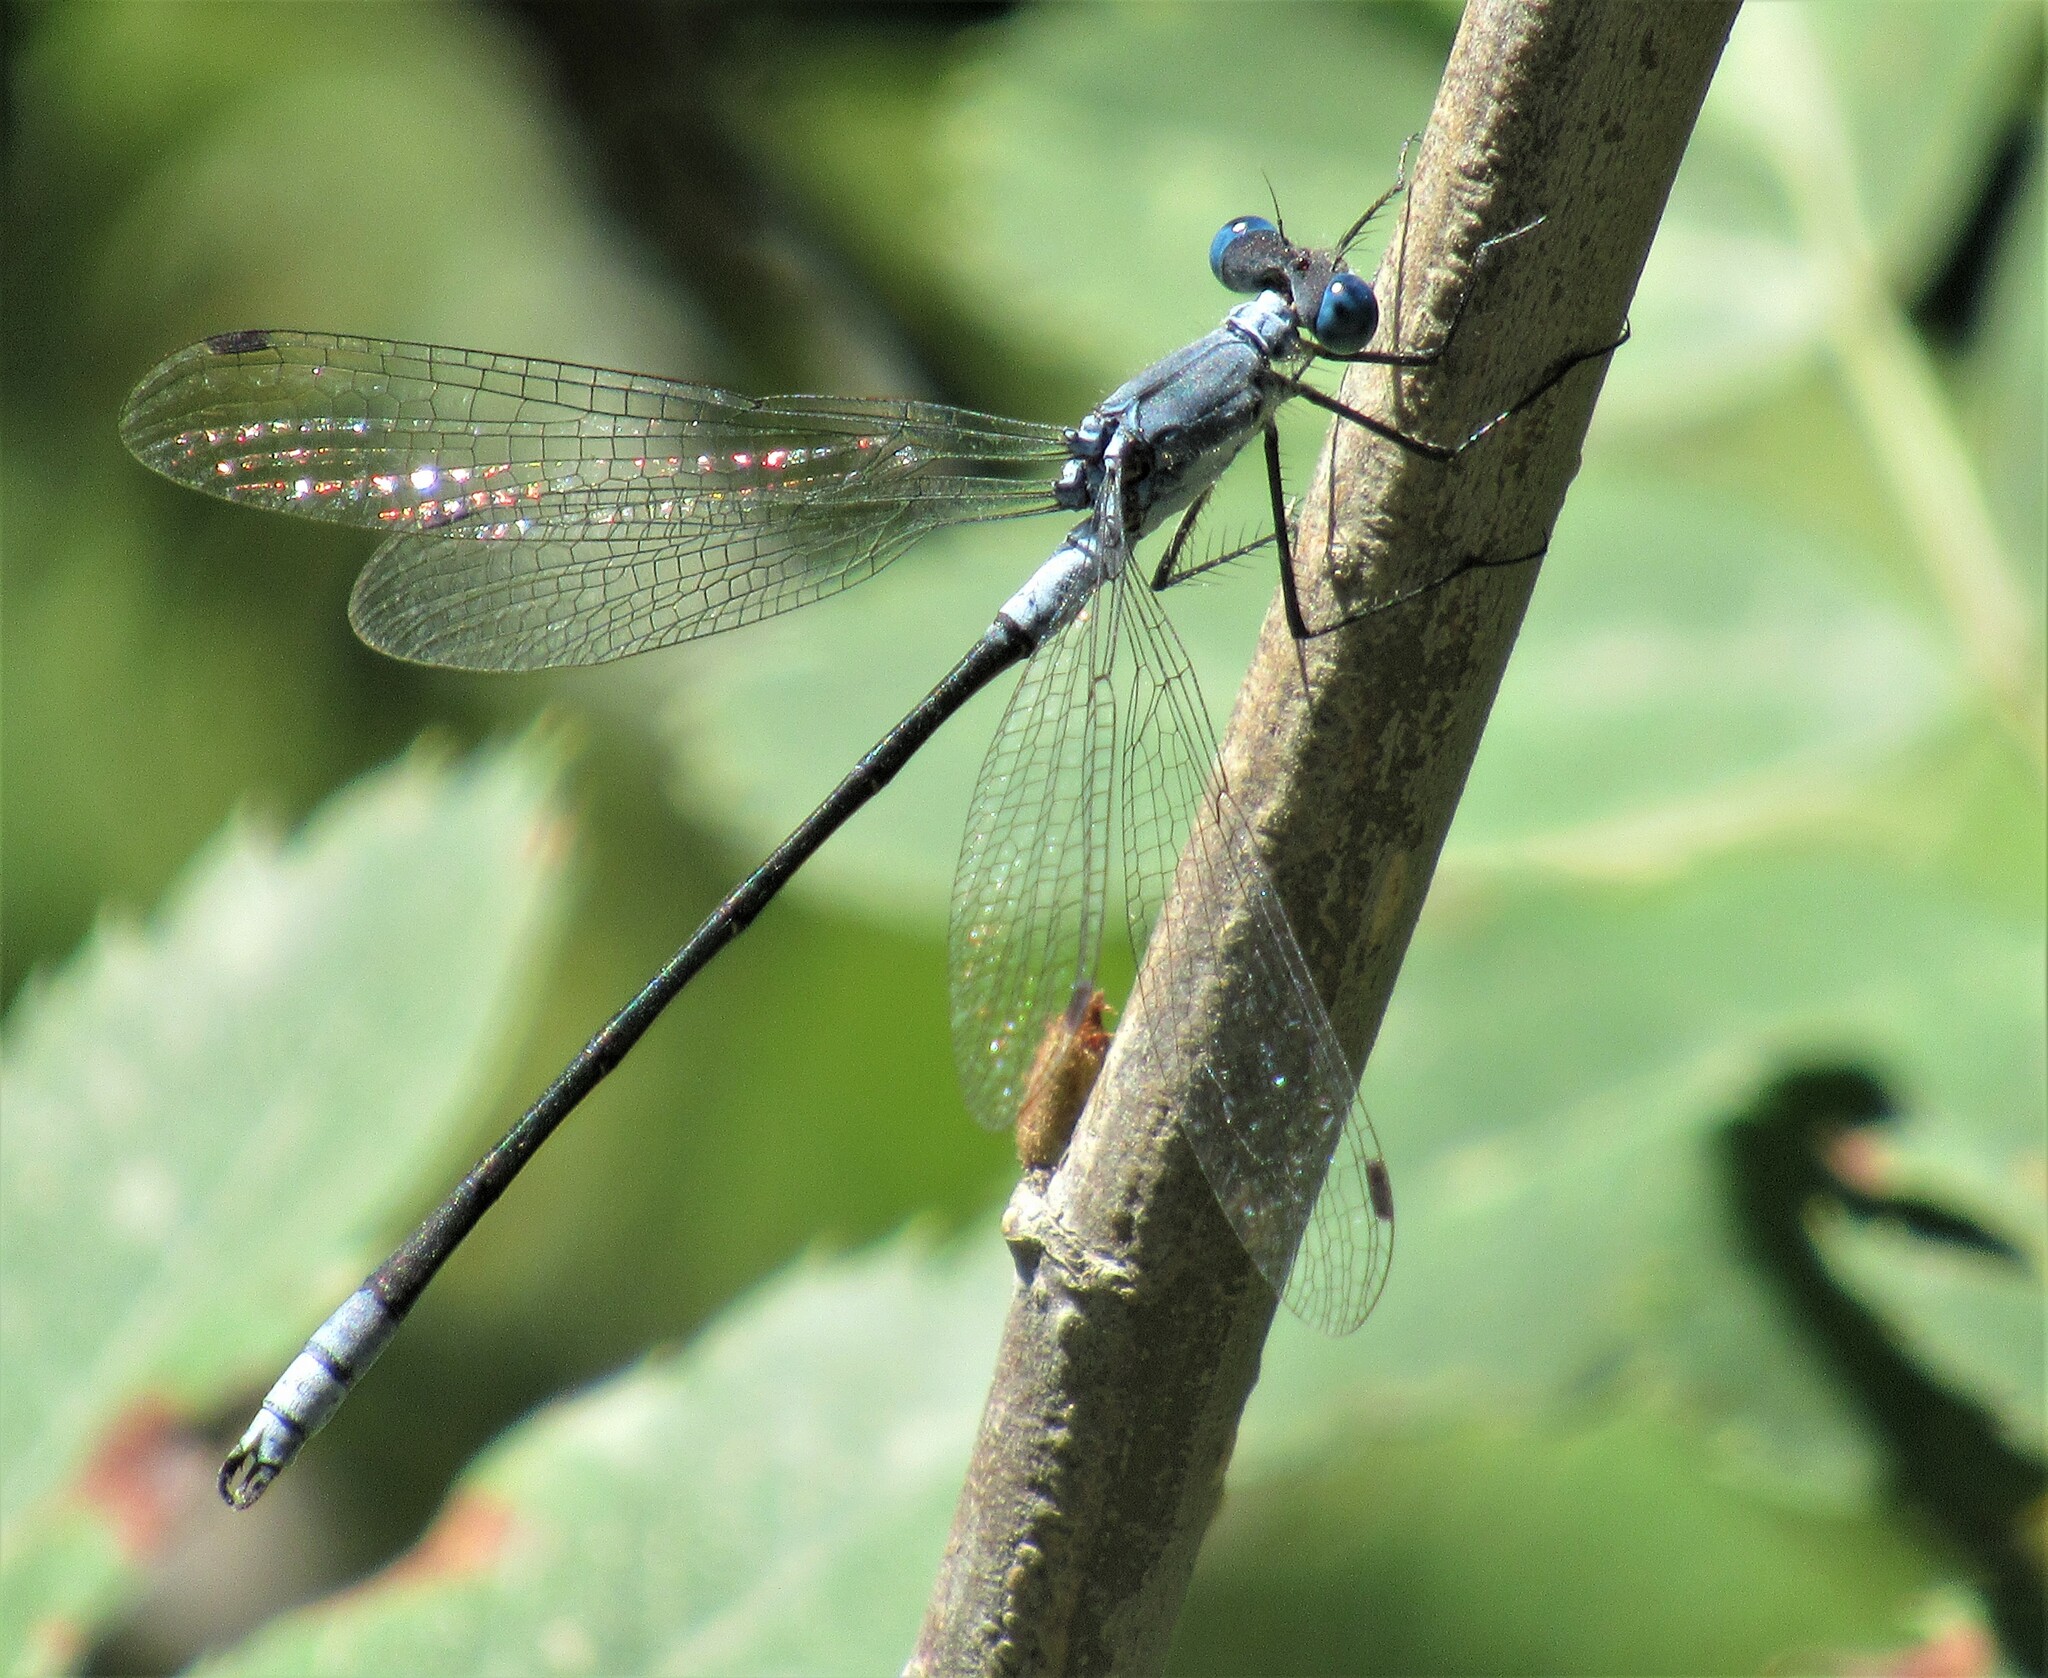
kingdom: Animalia
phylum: Arthropoda
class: Insecta
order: Odonata
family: Lestidae
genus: Lestes
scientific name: Lestes disjunctus
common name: Northern spreadwing
